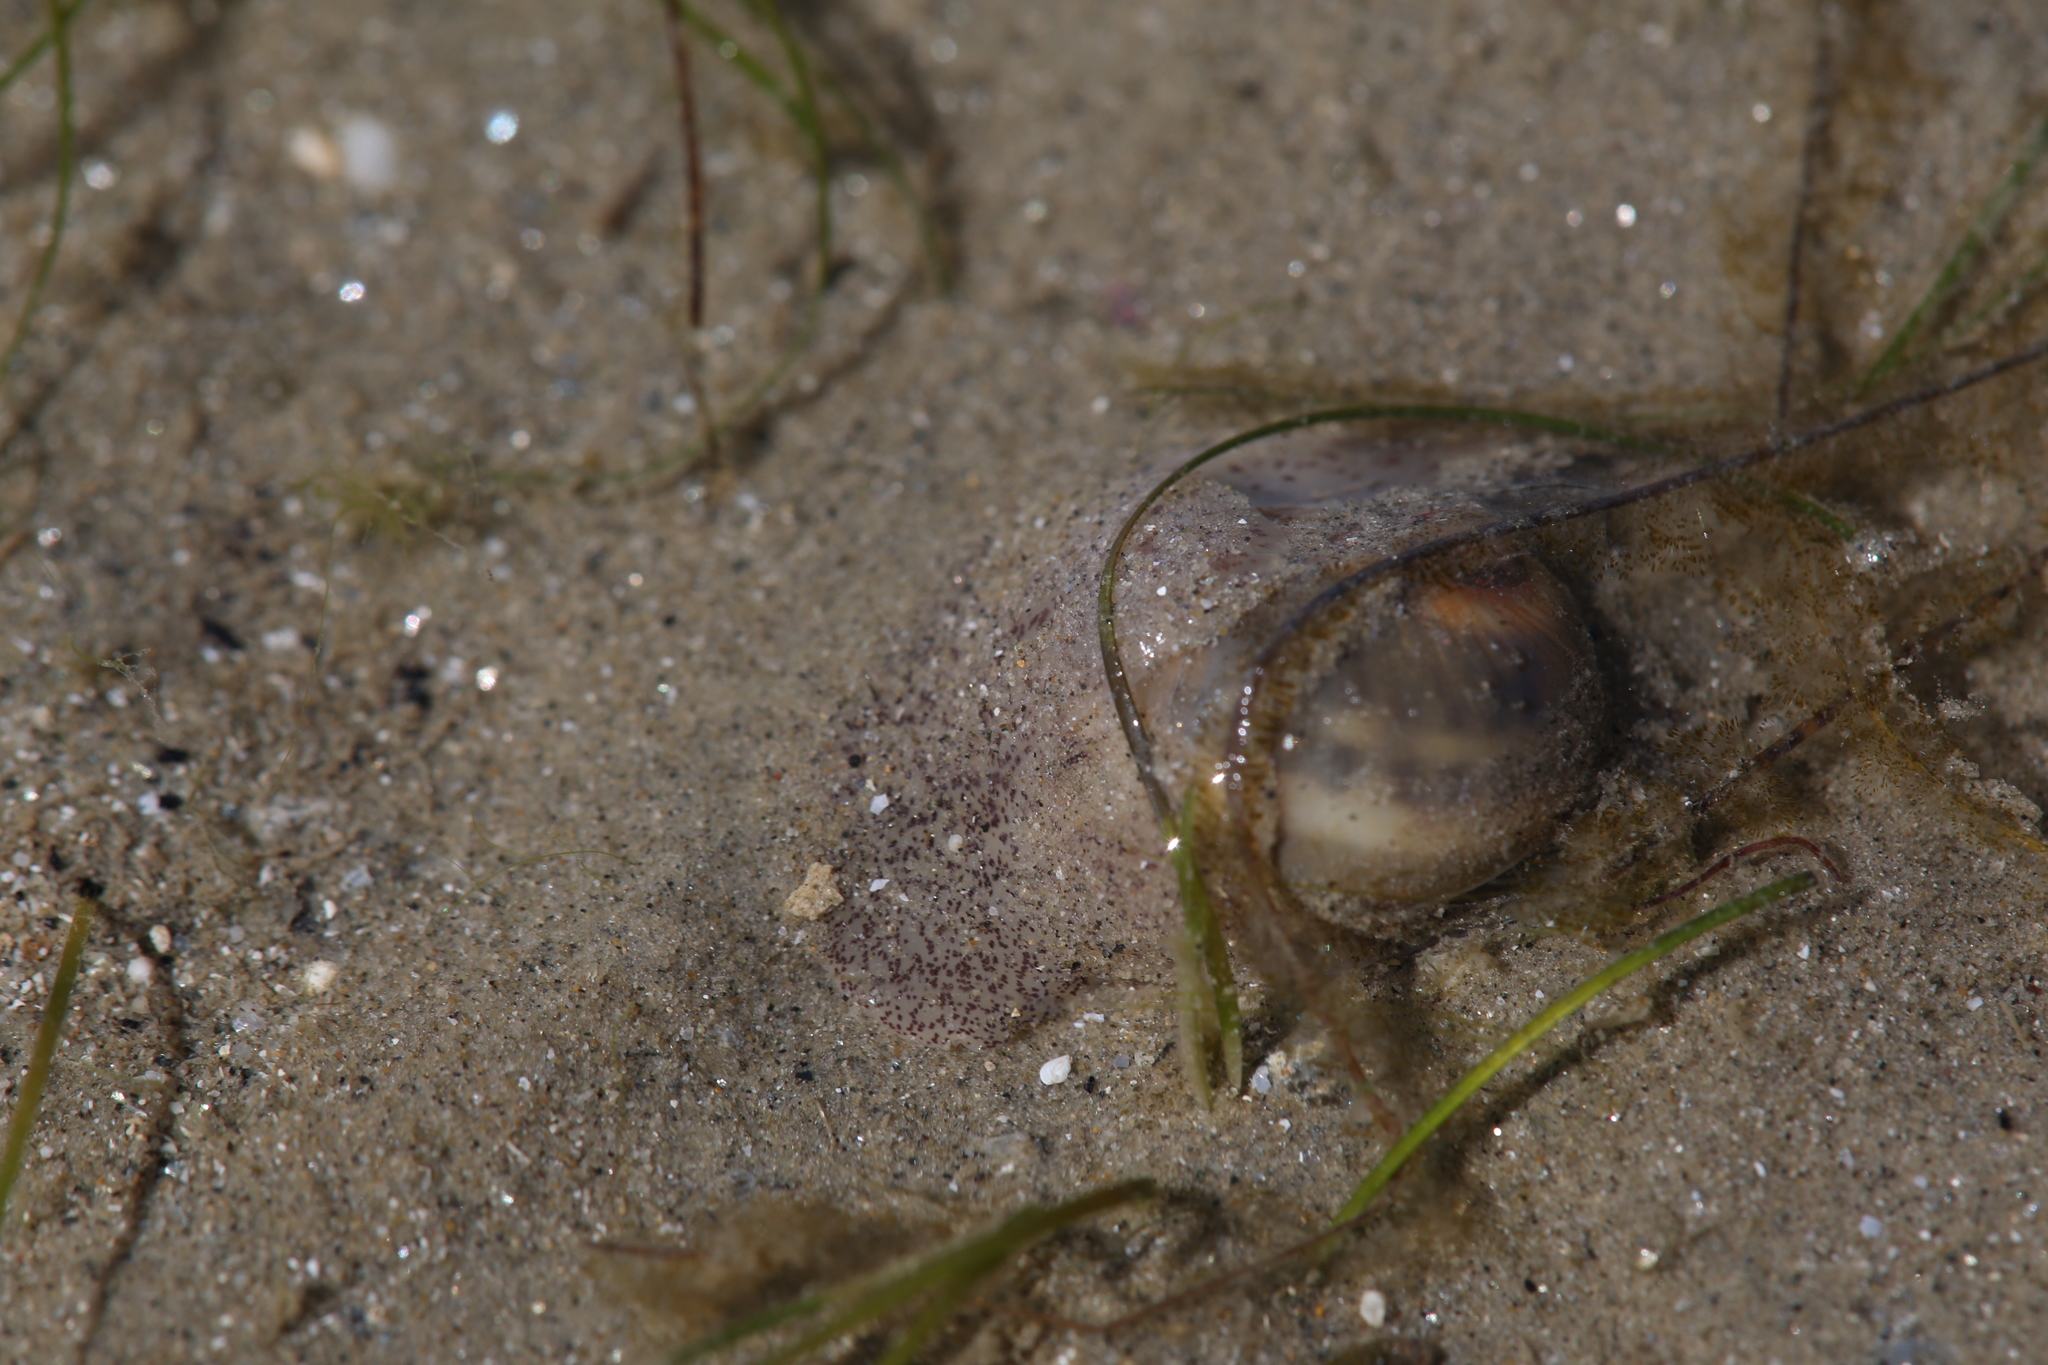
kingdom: Animalia
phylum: Mollusca
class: Gastropoda
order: Littorinimorpha
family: Naticidae
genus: Notocochlis
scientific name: Notocochlis gualteriana
